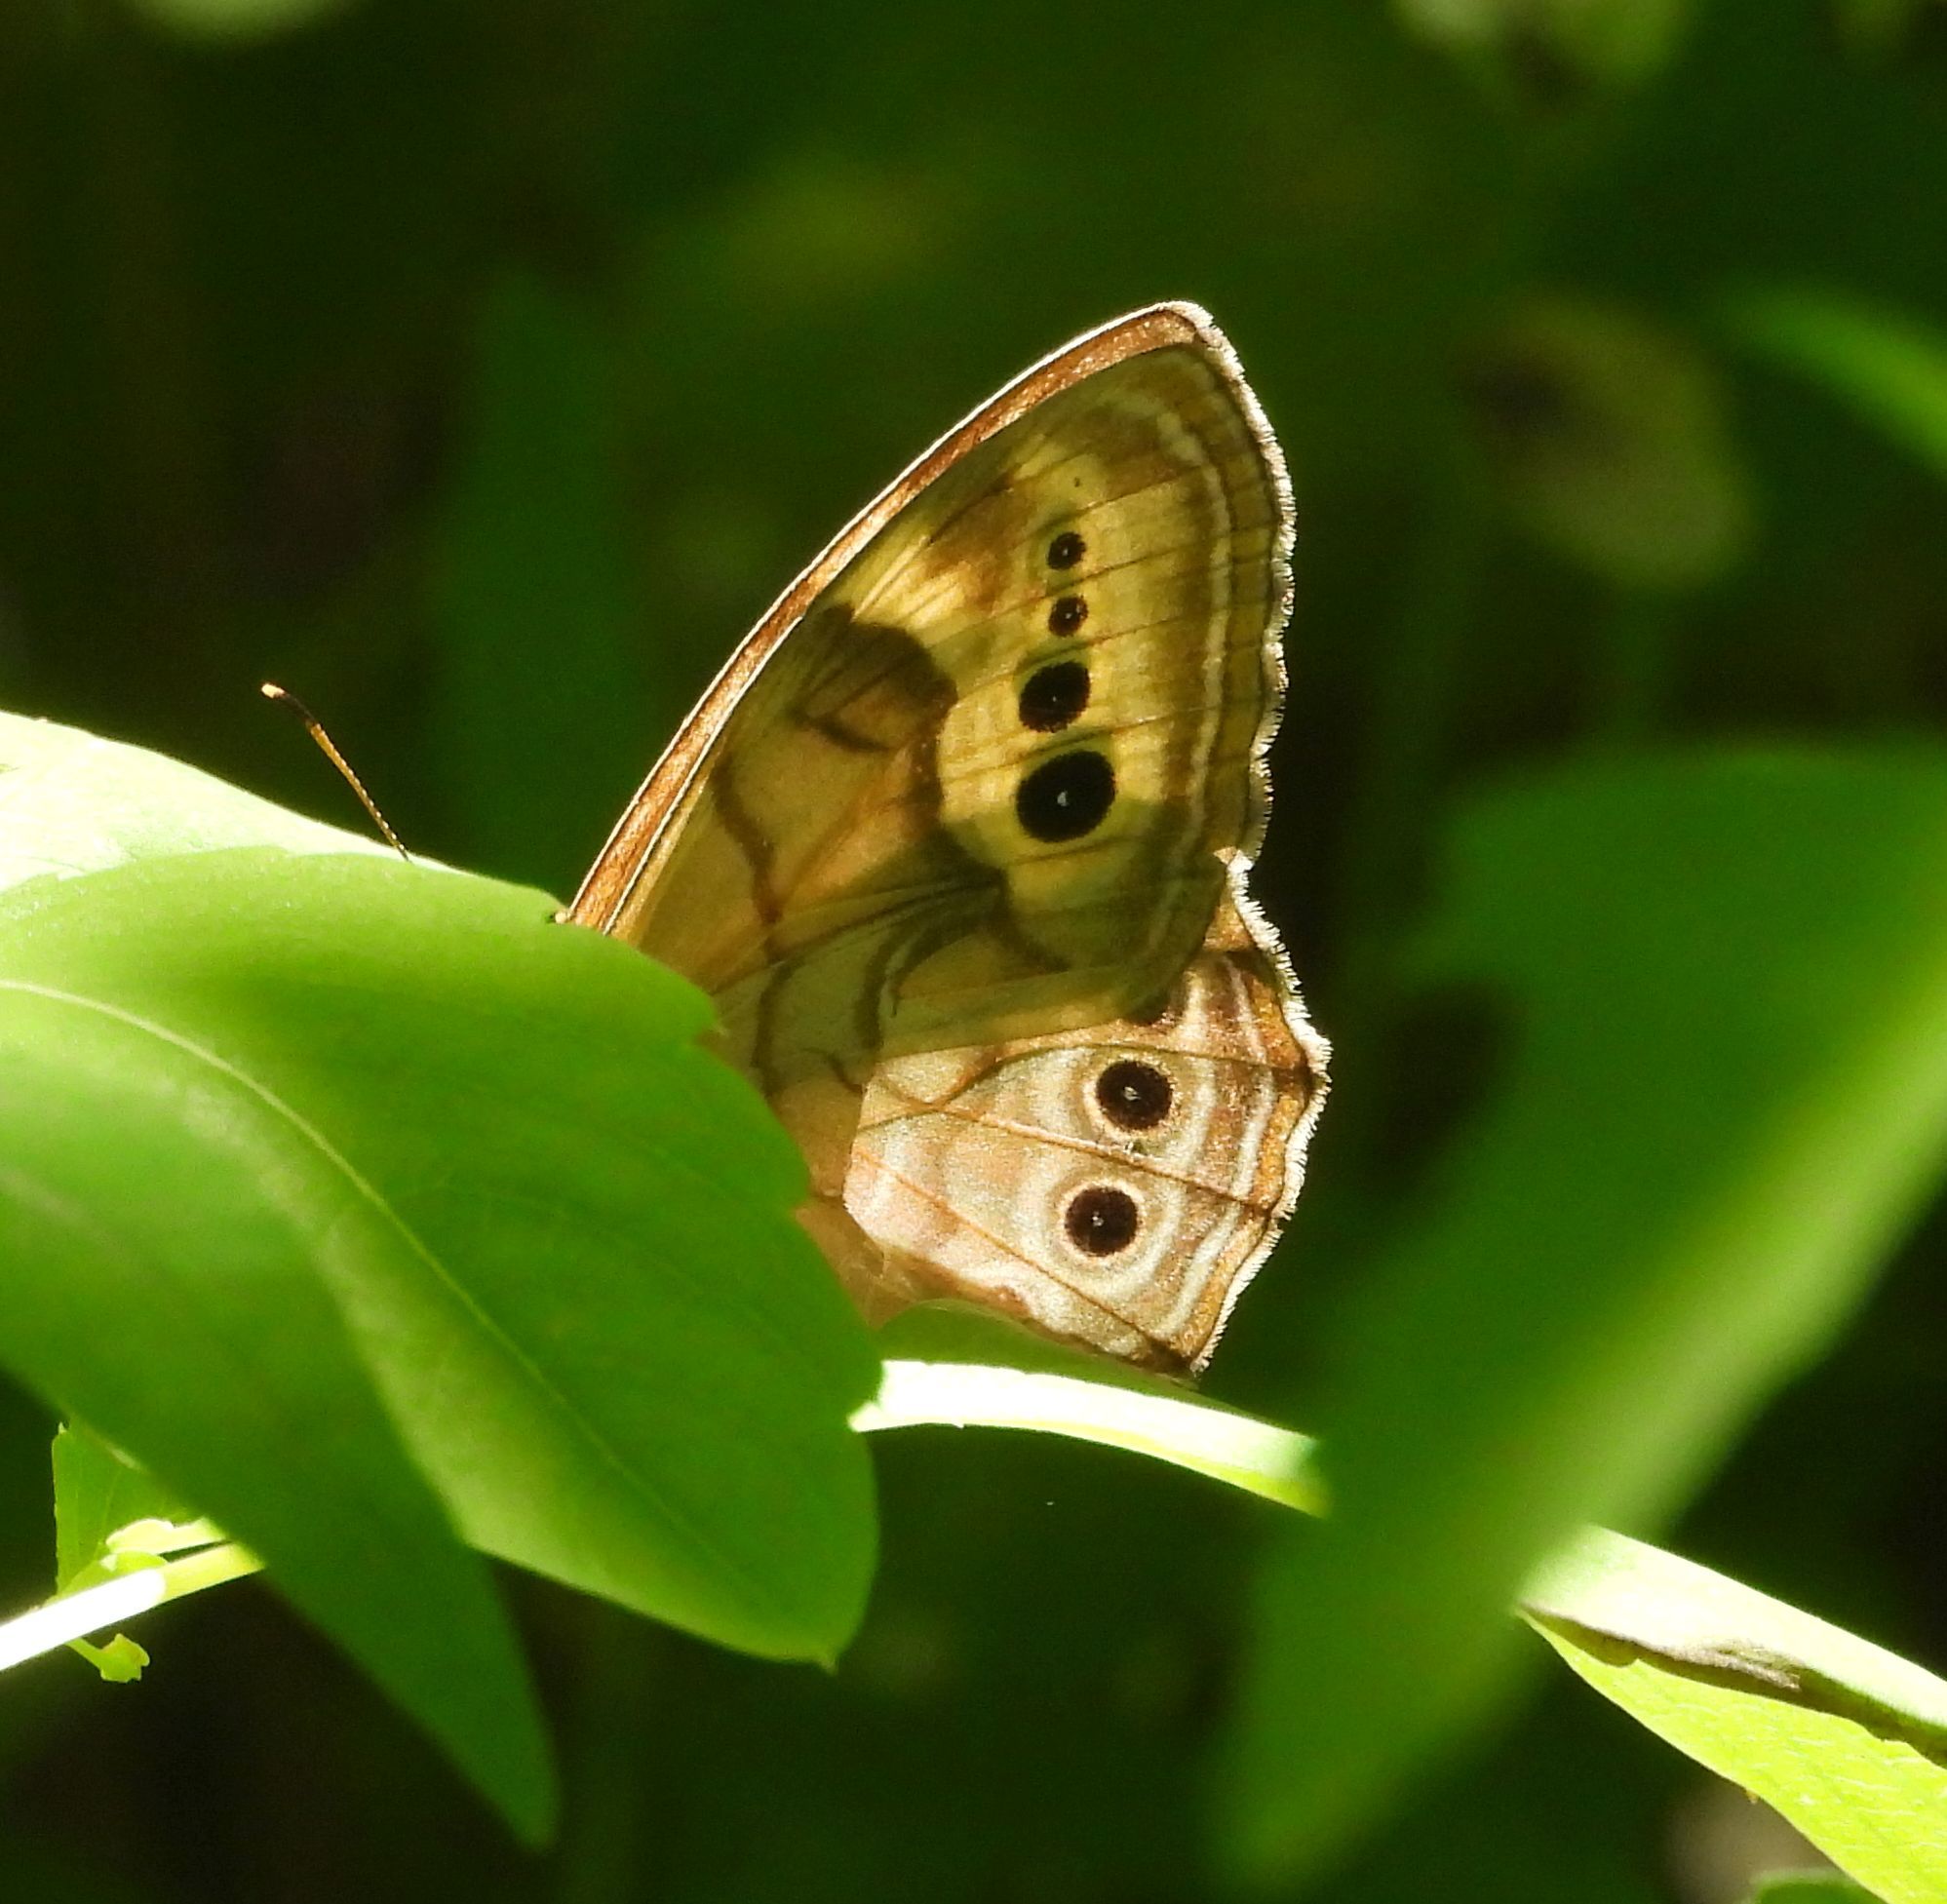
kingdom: Animalia
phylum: Arthropoda
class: Insecta
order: Lepidoptera
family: Nymphalidae
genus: Lethe
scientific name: Lethe anthedon
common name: Northern pearly-eye
